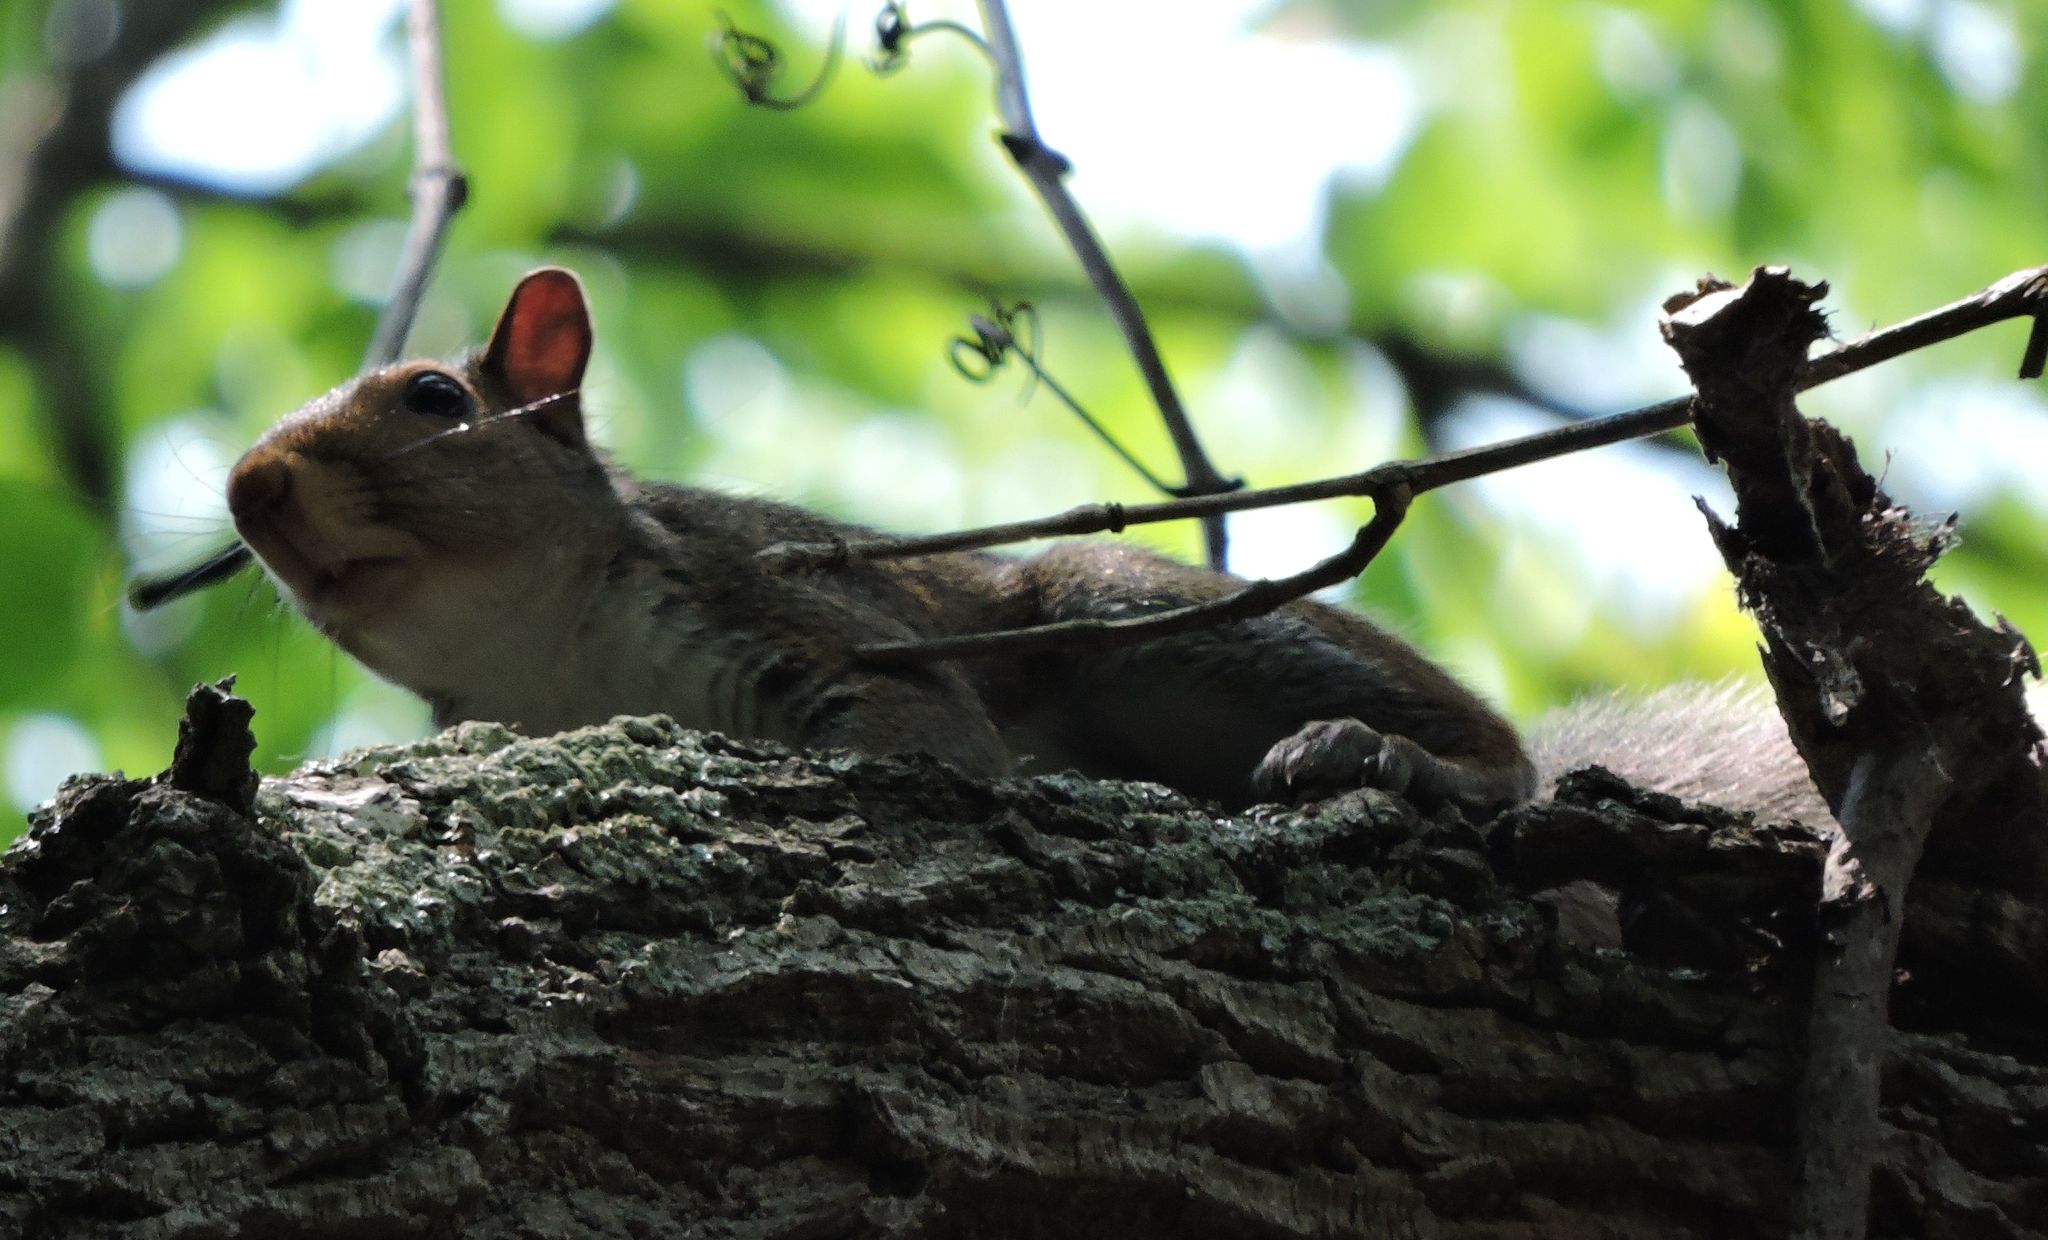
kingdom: Animalia
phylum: Chordata
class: Mammalia
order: Rodentia
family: Sciuridae
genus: Sciurus
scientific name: Sciurus carolinensis
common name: Eastern gray squirrel
